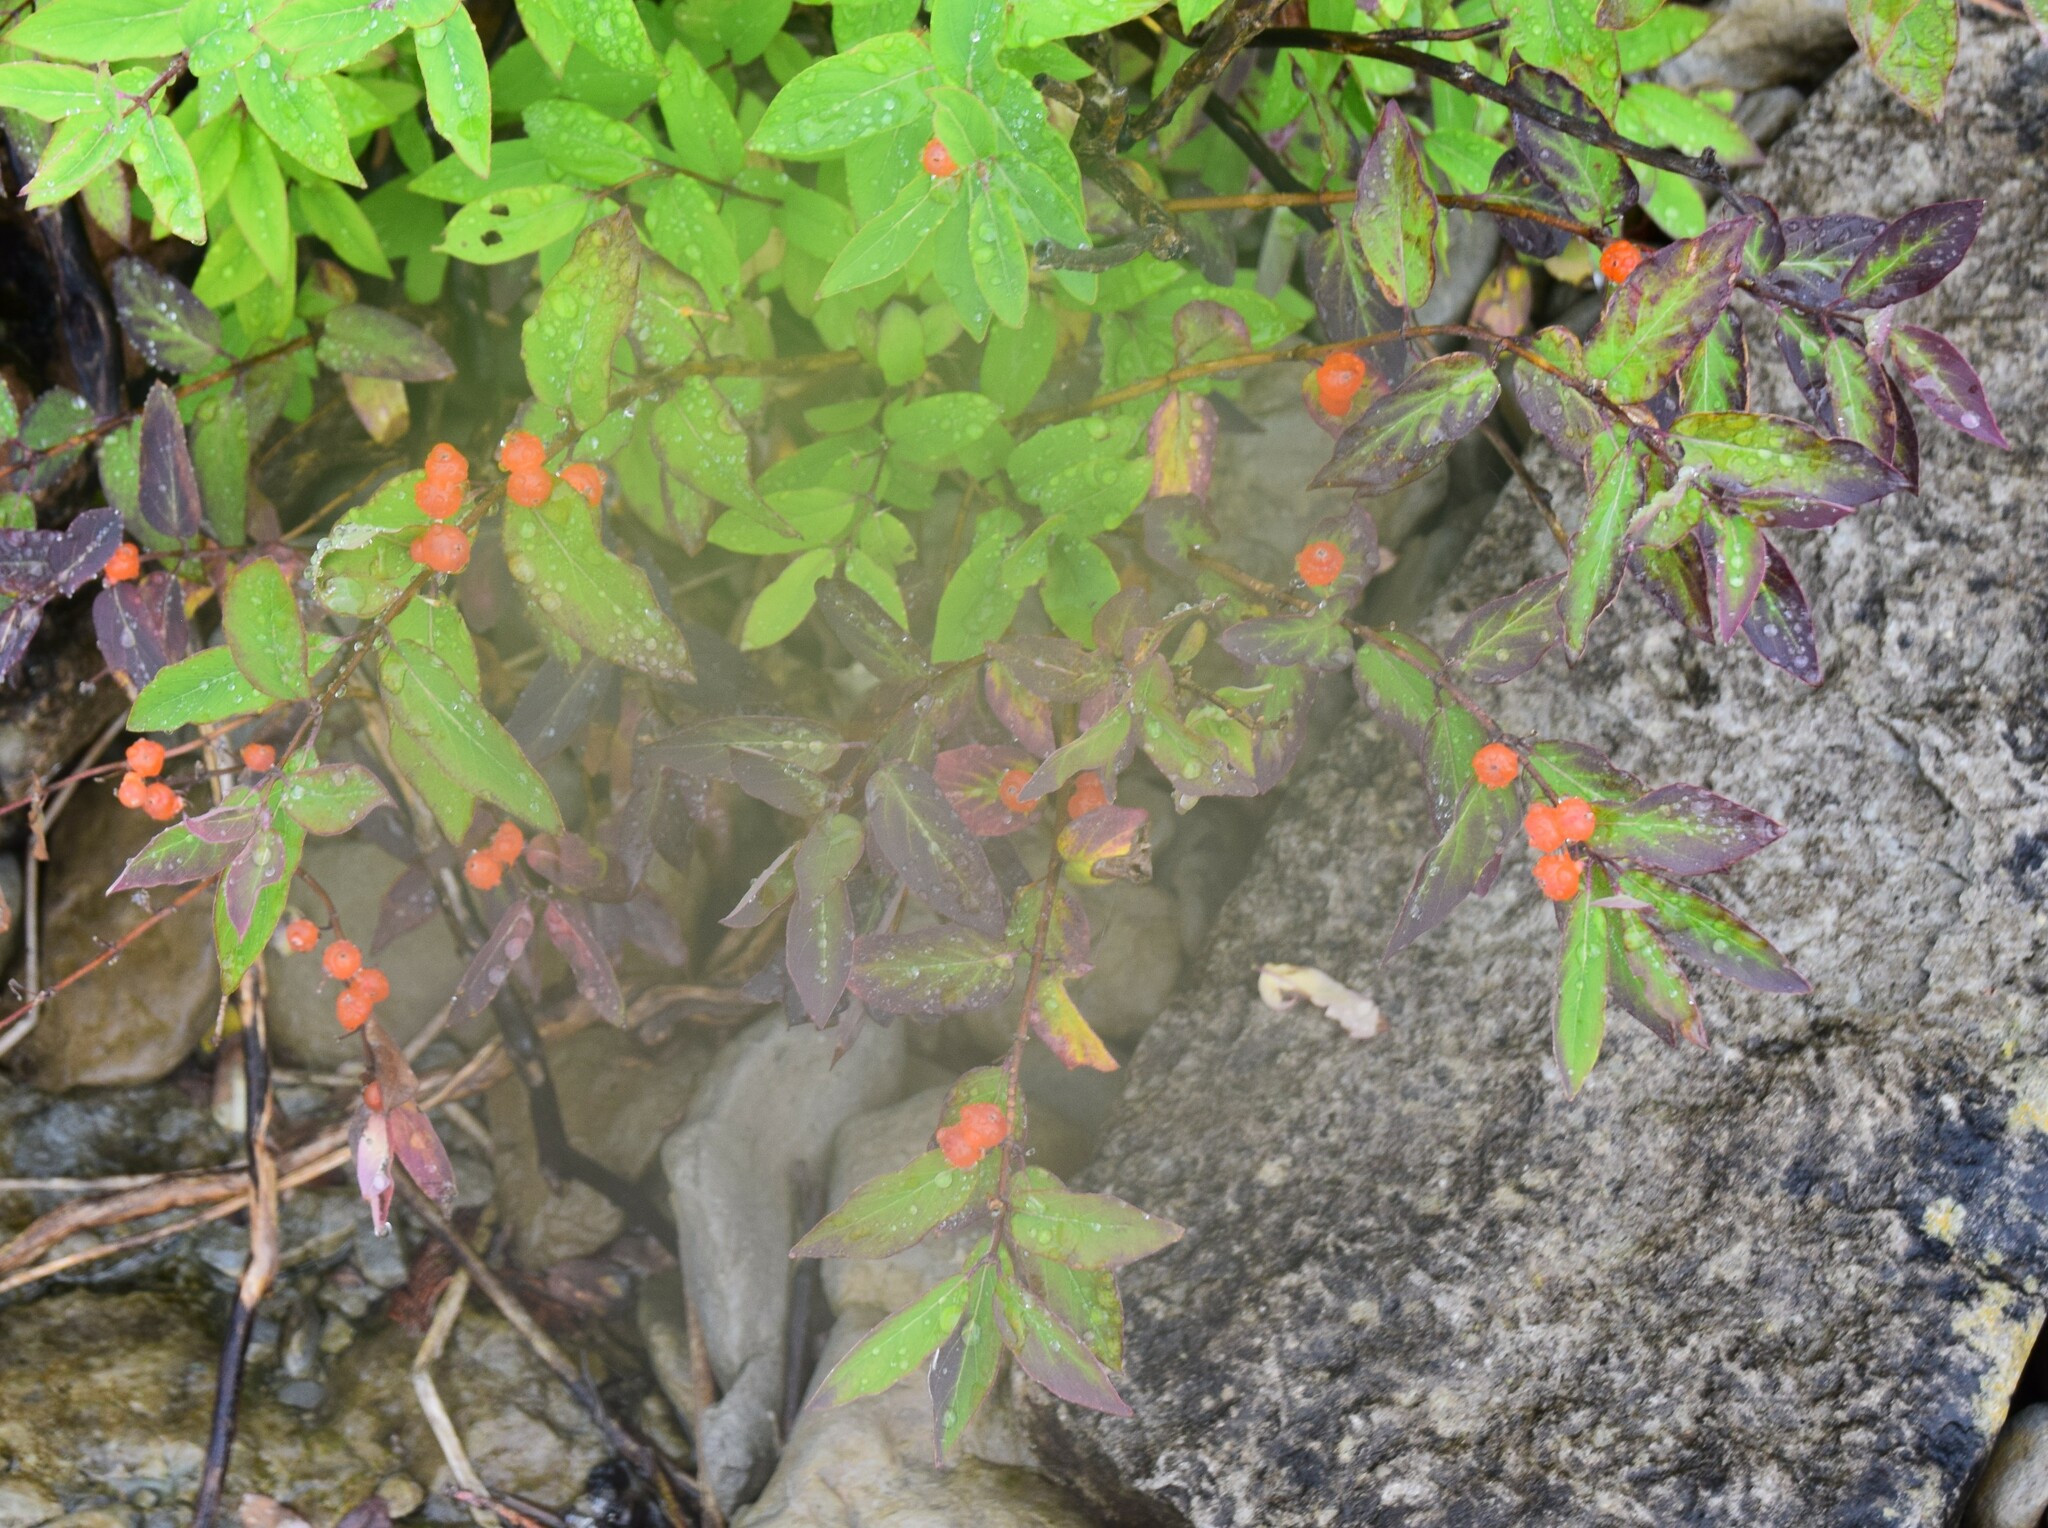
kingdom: Plantae
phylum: Tracheophyta
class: Magnoliopsida
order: Santalales
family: Comandraceae
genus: Geocaulon
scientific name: Geocaulon lividum
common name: Earthberry
